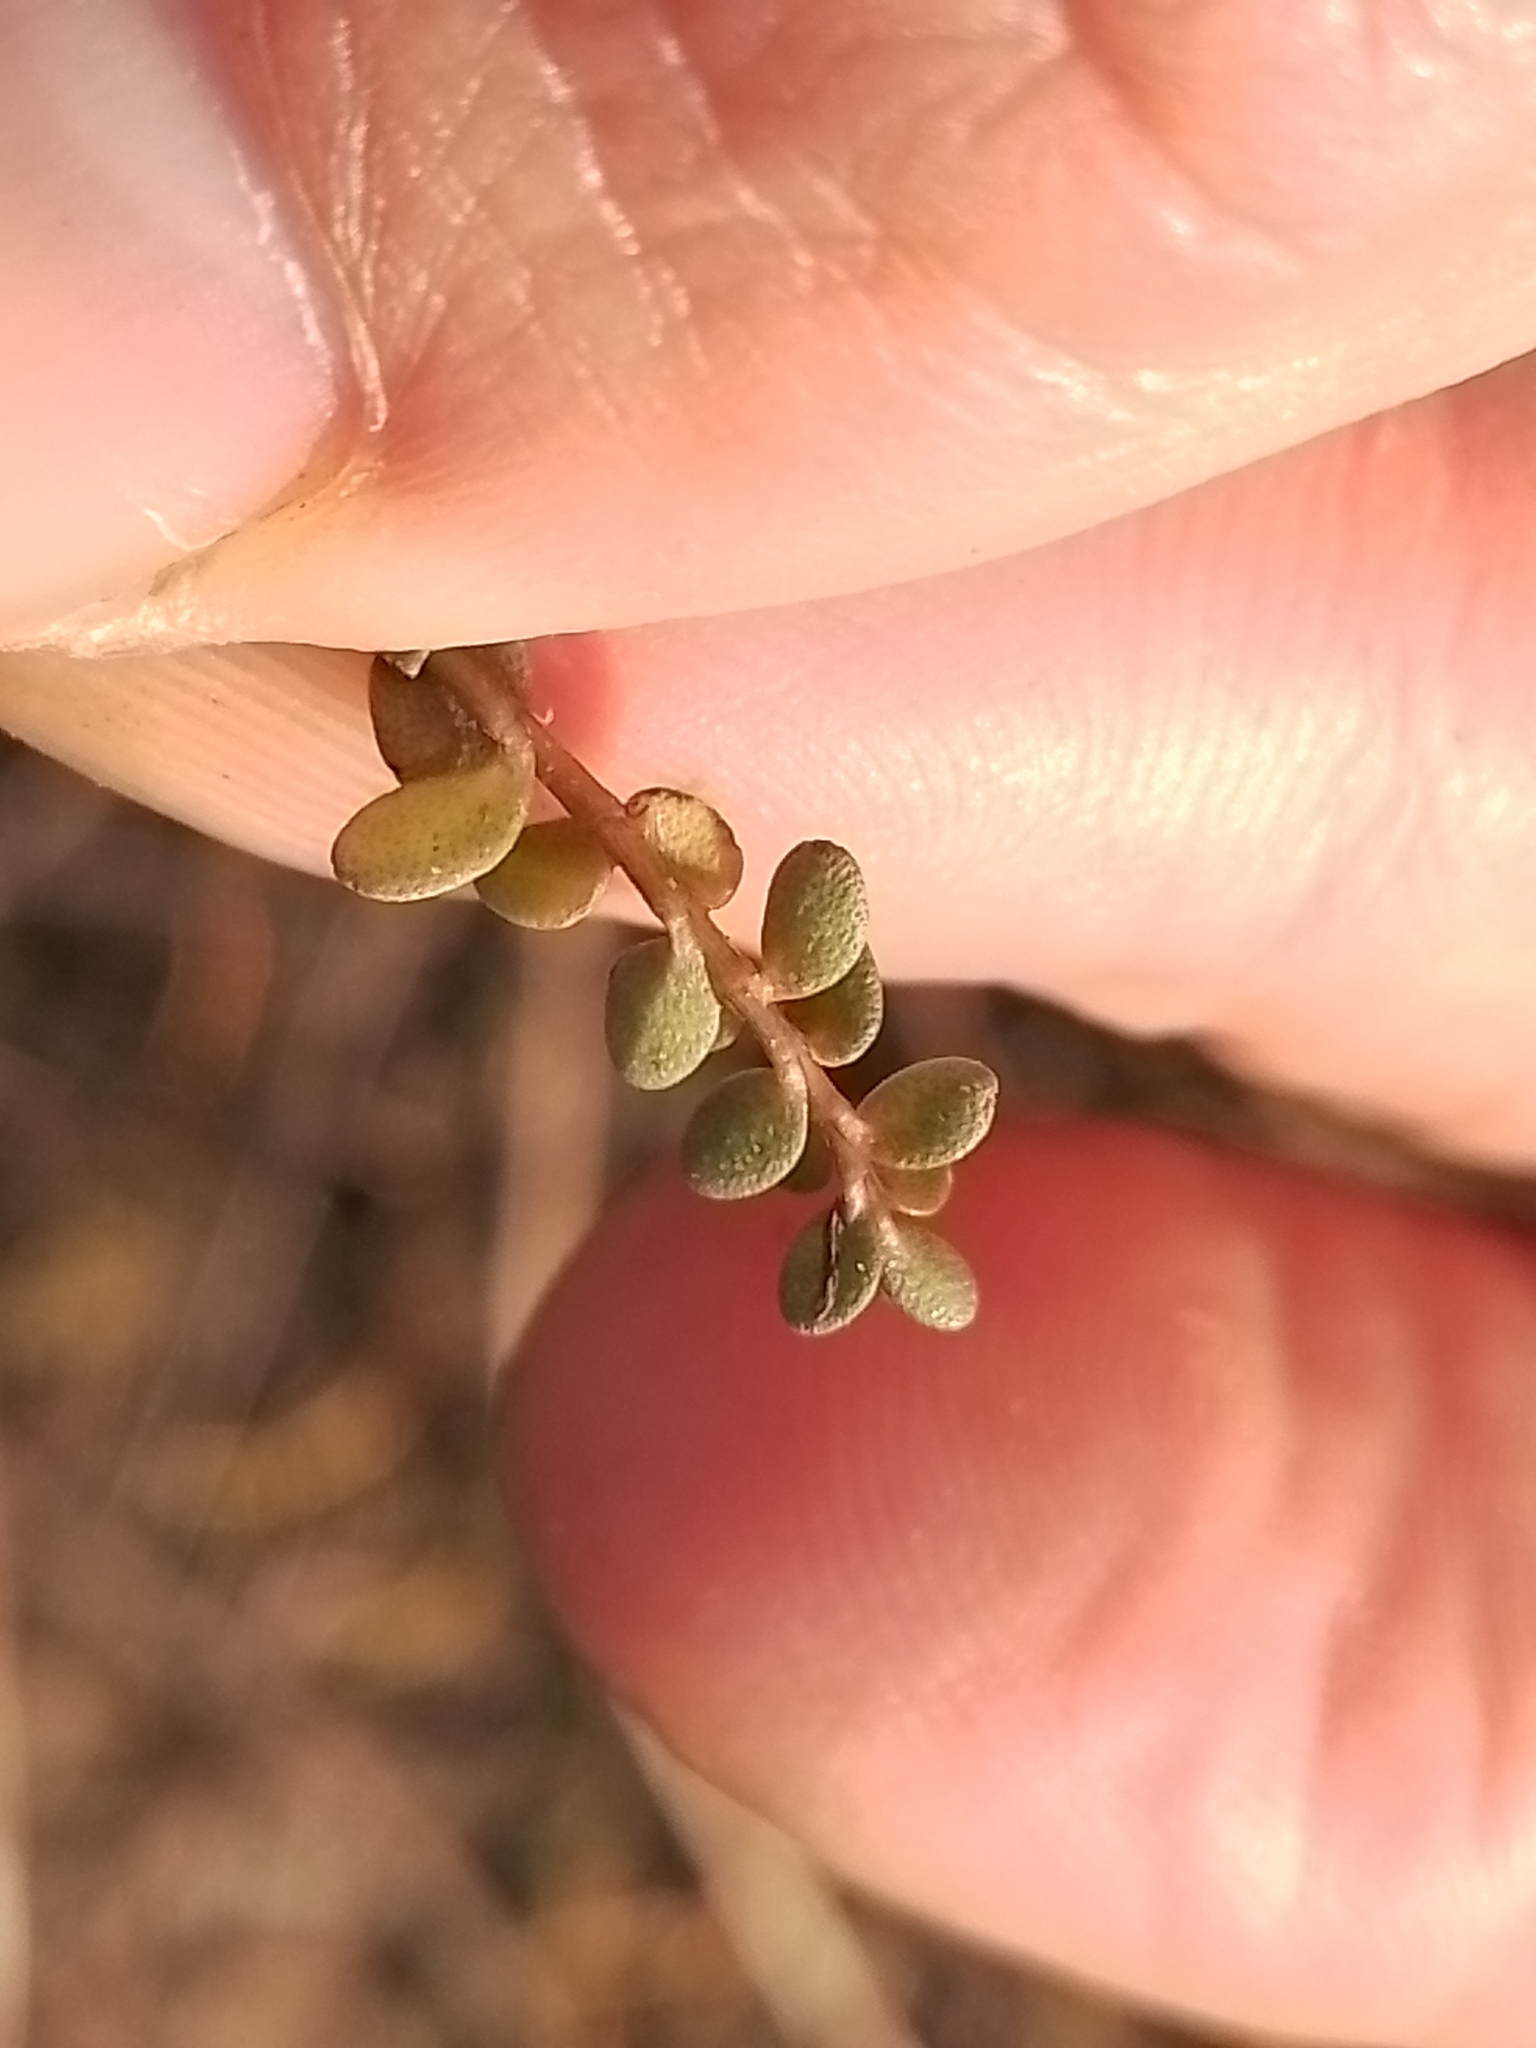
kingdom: Plantae
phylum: Tracheophyta
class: Magnoliopsida
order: Lamiales
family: Phrymaceae
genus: Thyridia
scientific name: Thyridia repens
